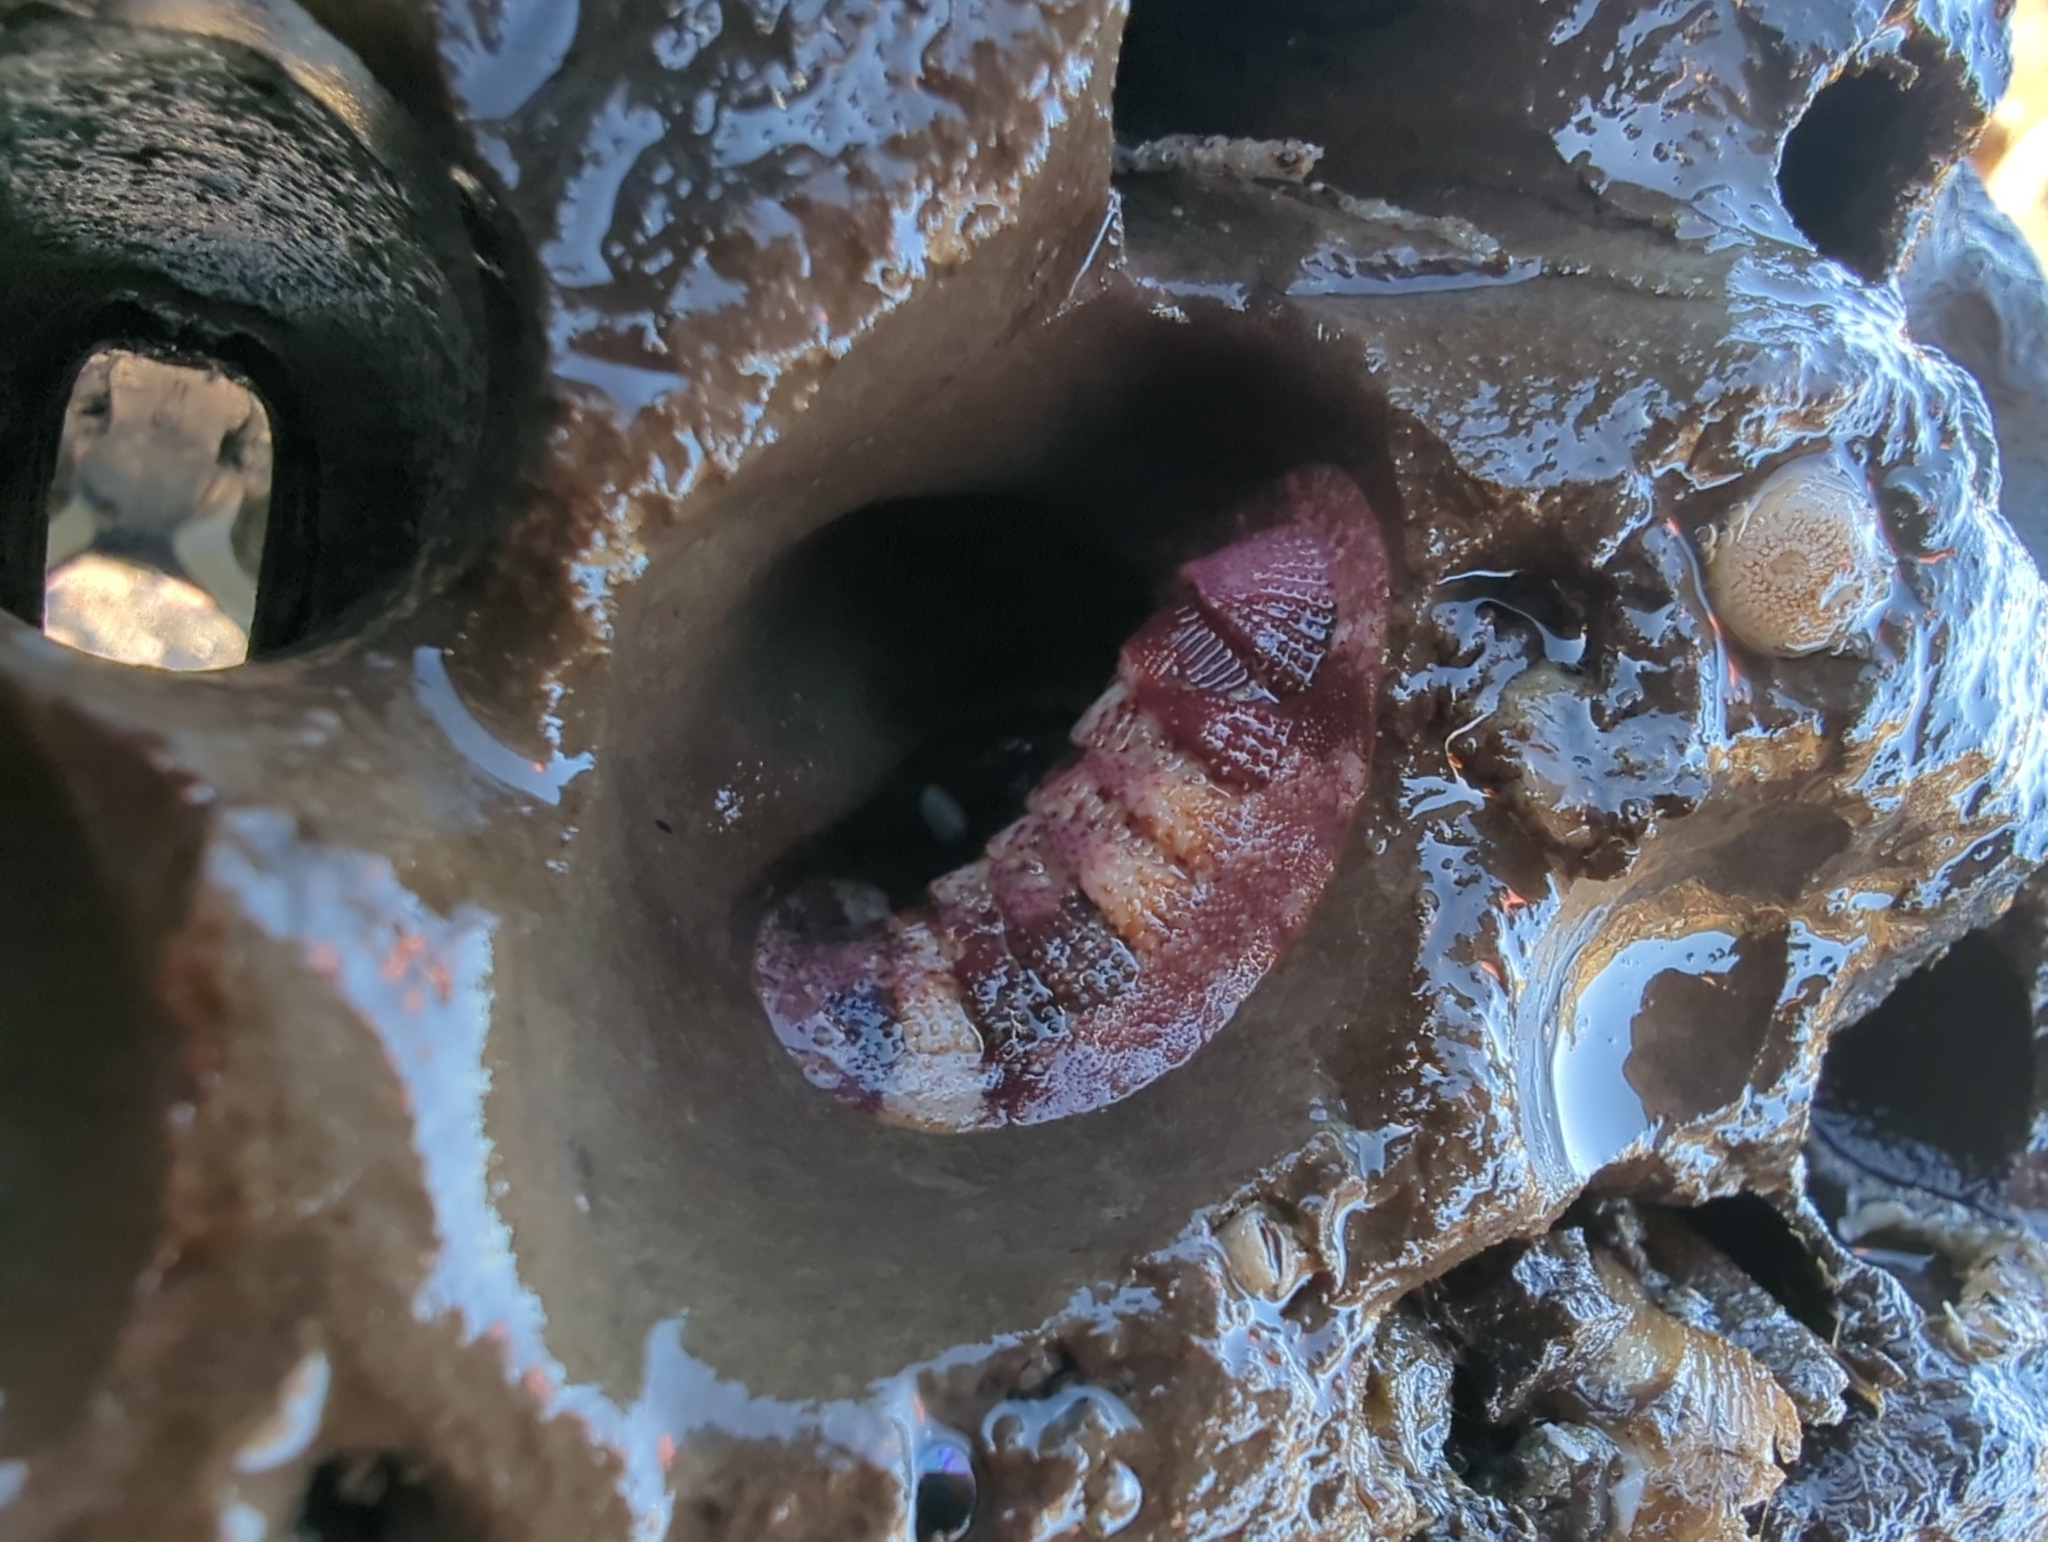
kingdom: Animalia
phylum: Mollusca
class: Polyplacophora
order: Chitonida
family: Ischnochitonidae
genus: Lepidozona
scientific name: Lepidozona mertensii
